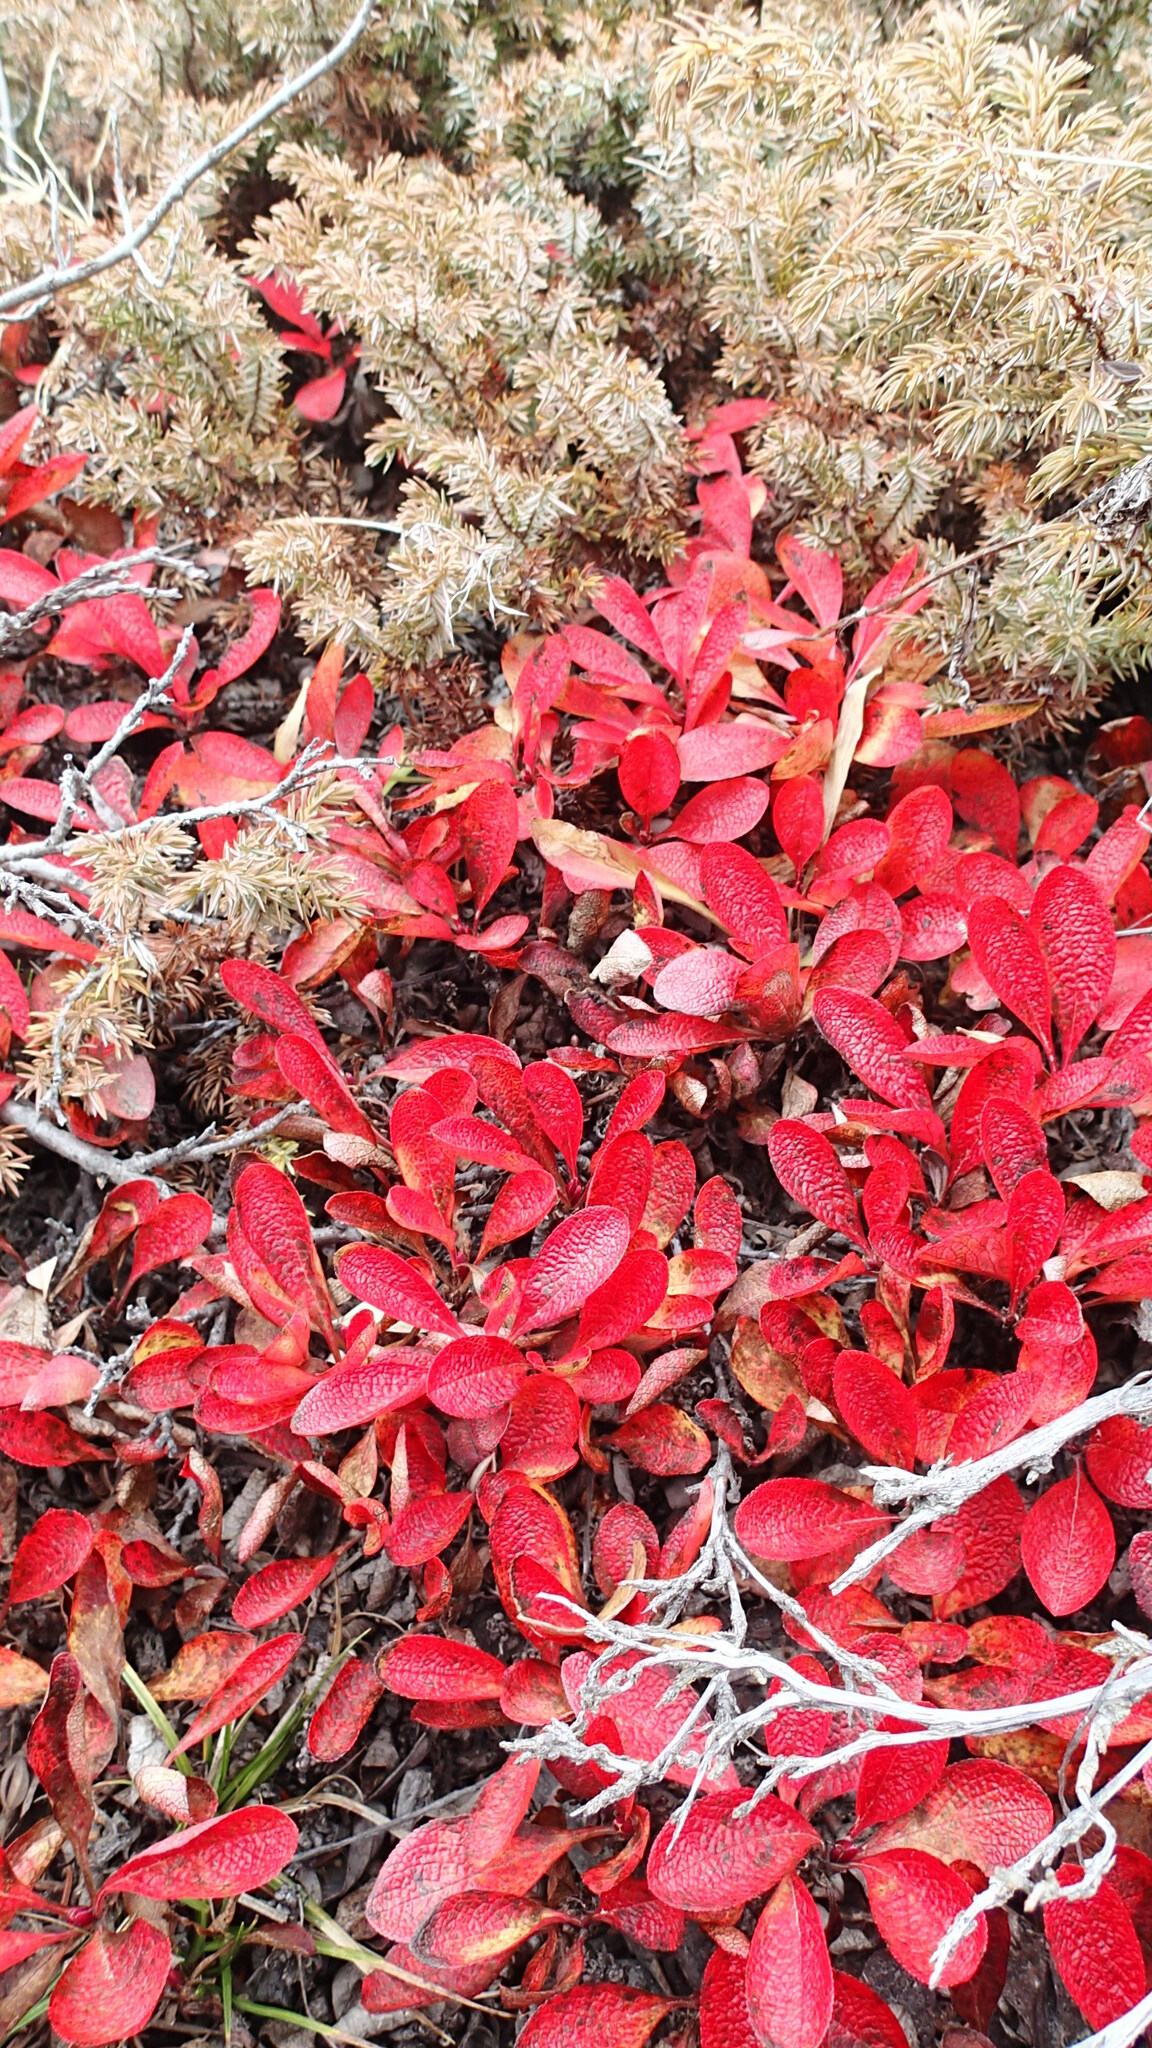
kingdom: Plantae
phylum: Tracheophyta
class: Magnoliopsida
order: Ericales
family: Ericaceae
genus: Arctostaphylos
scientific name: Arctostaphylos rubra
